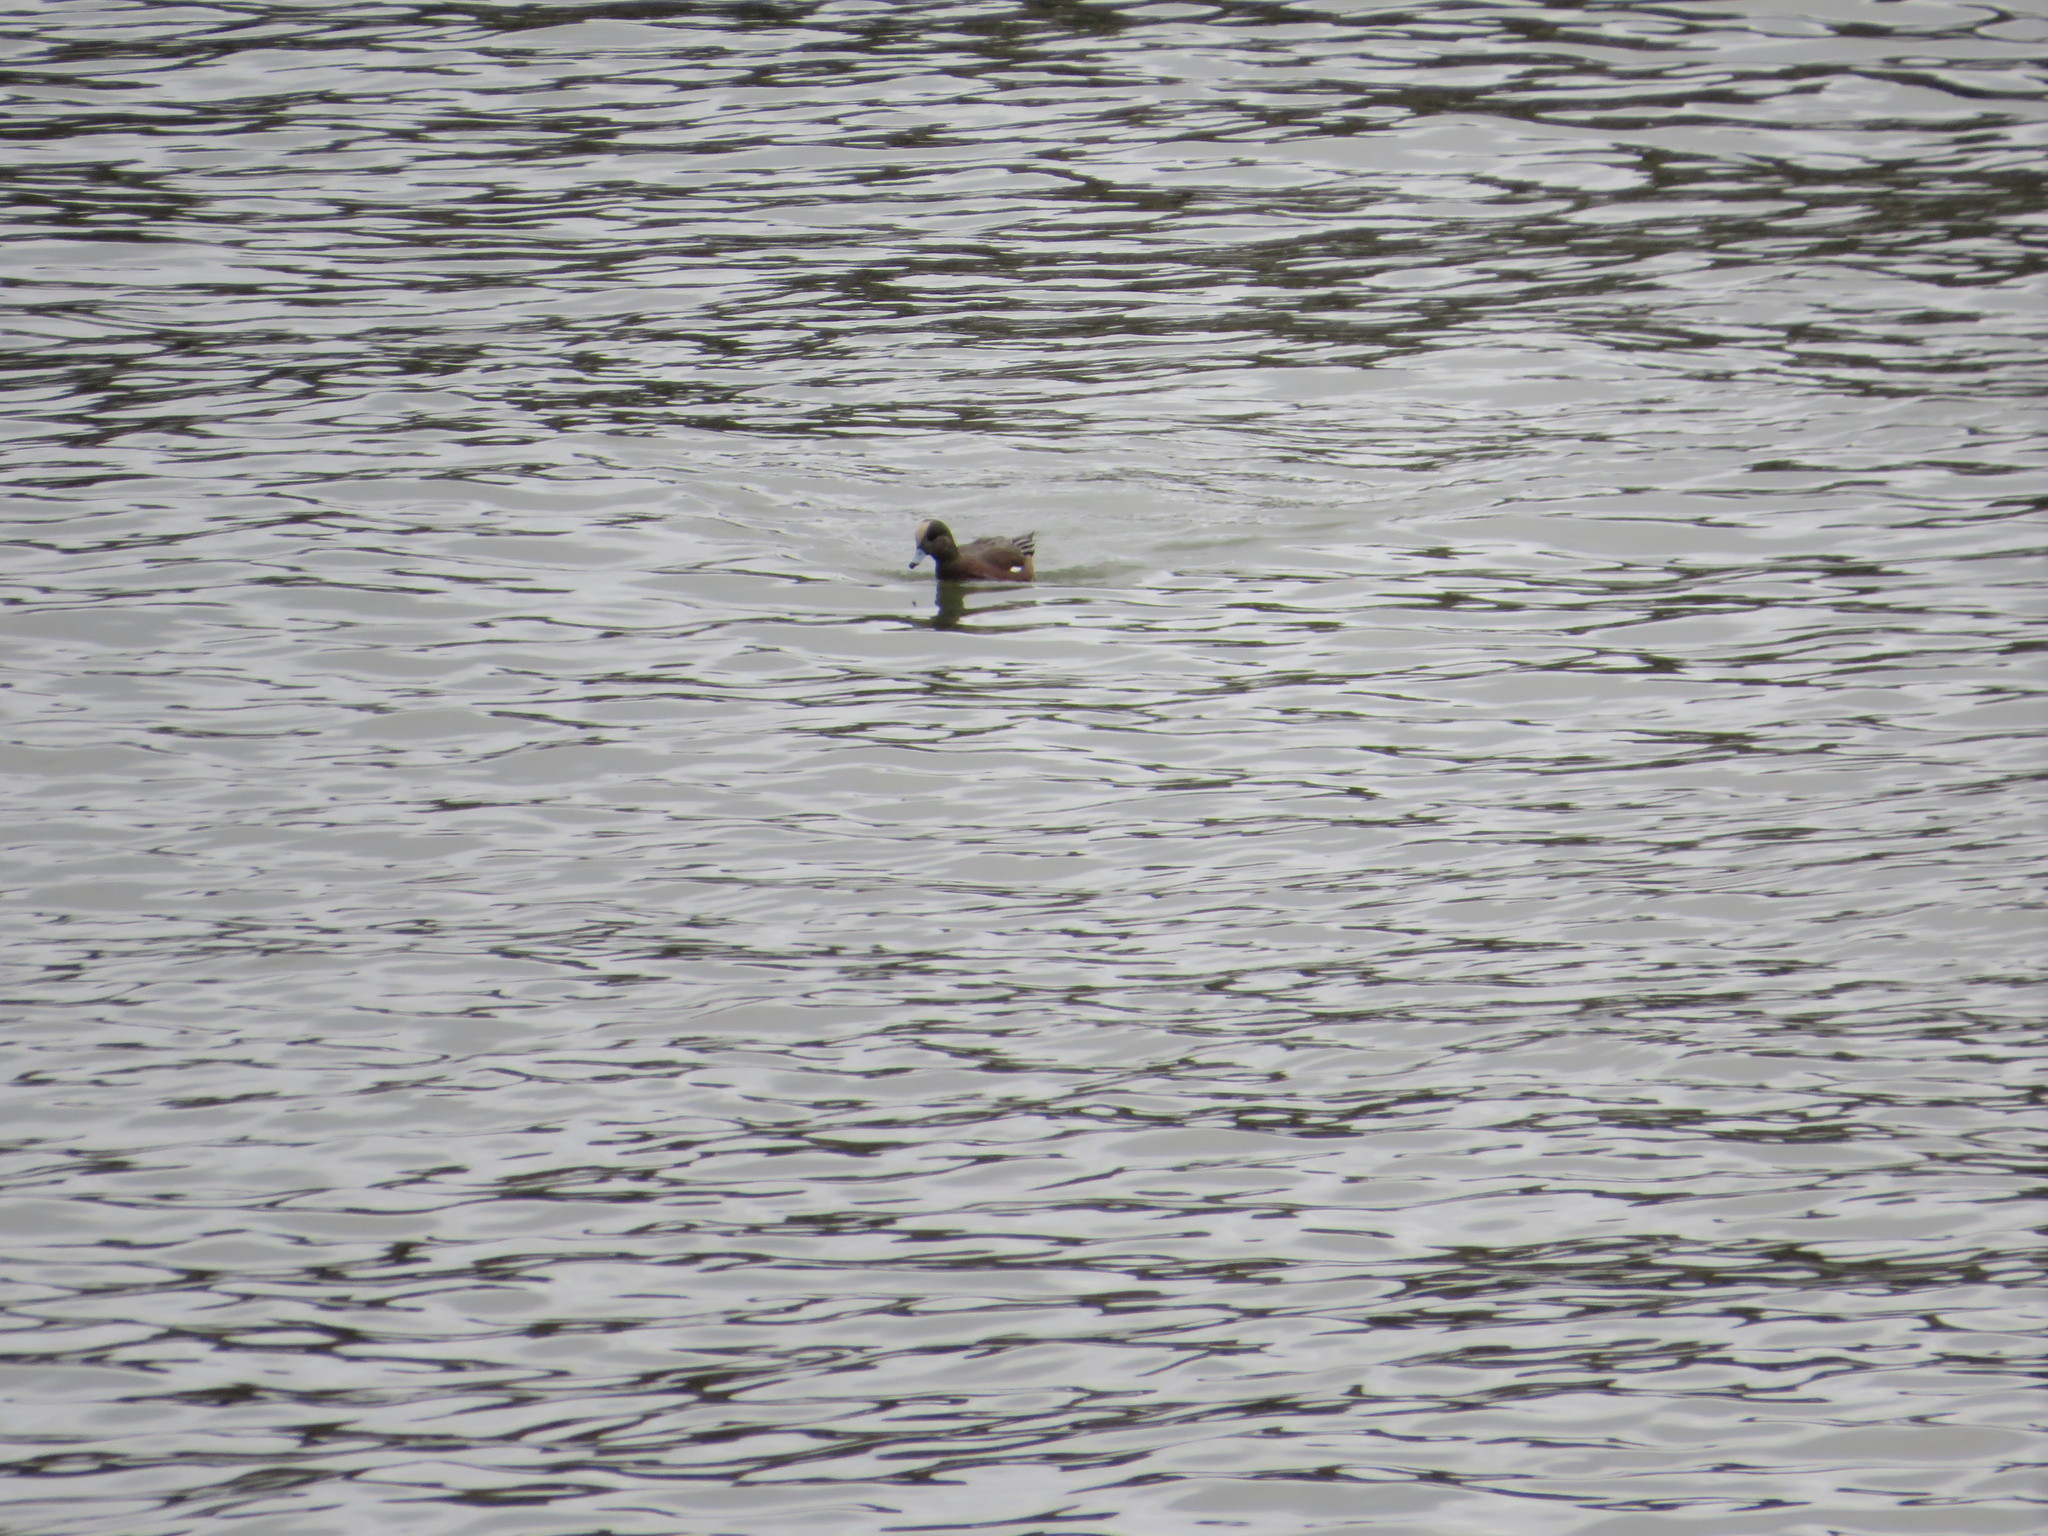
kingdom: Animalia
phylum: Chordata
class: Aves
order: Anseriformes
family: Anatidae
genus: Mareca
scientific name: Mareca americana
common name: American wigeon
